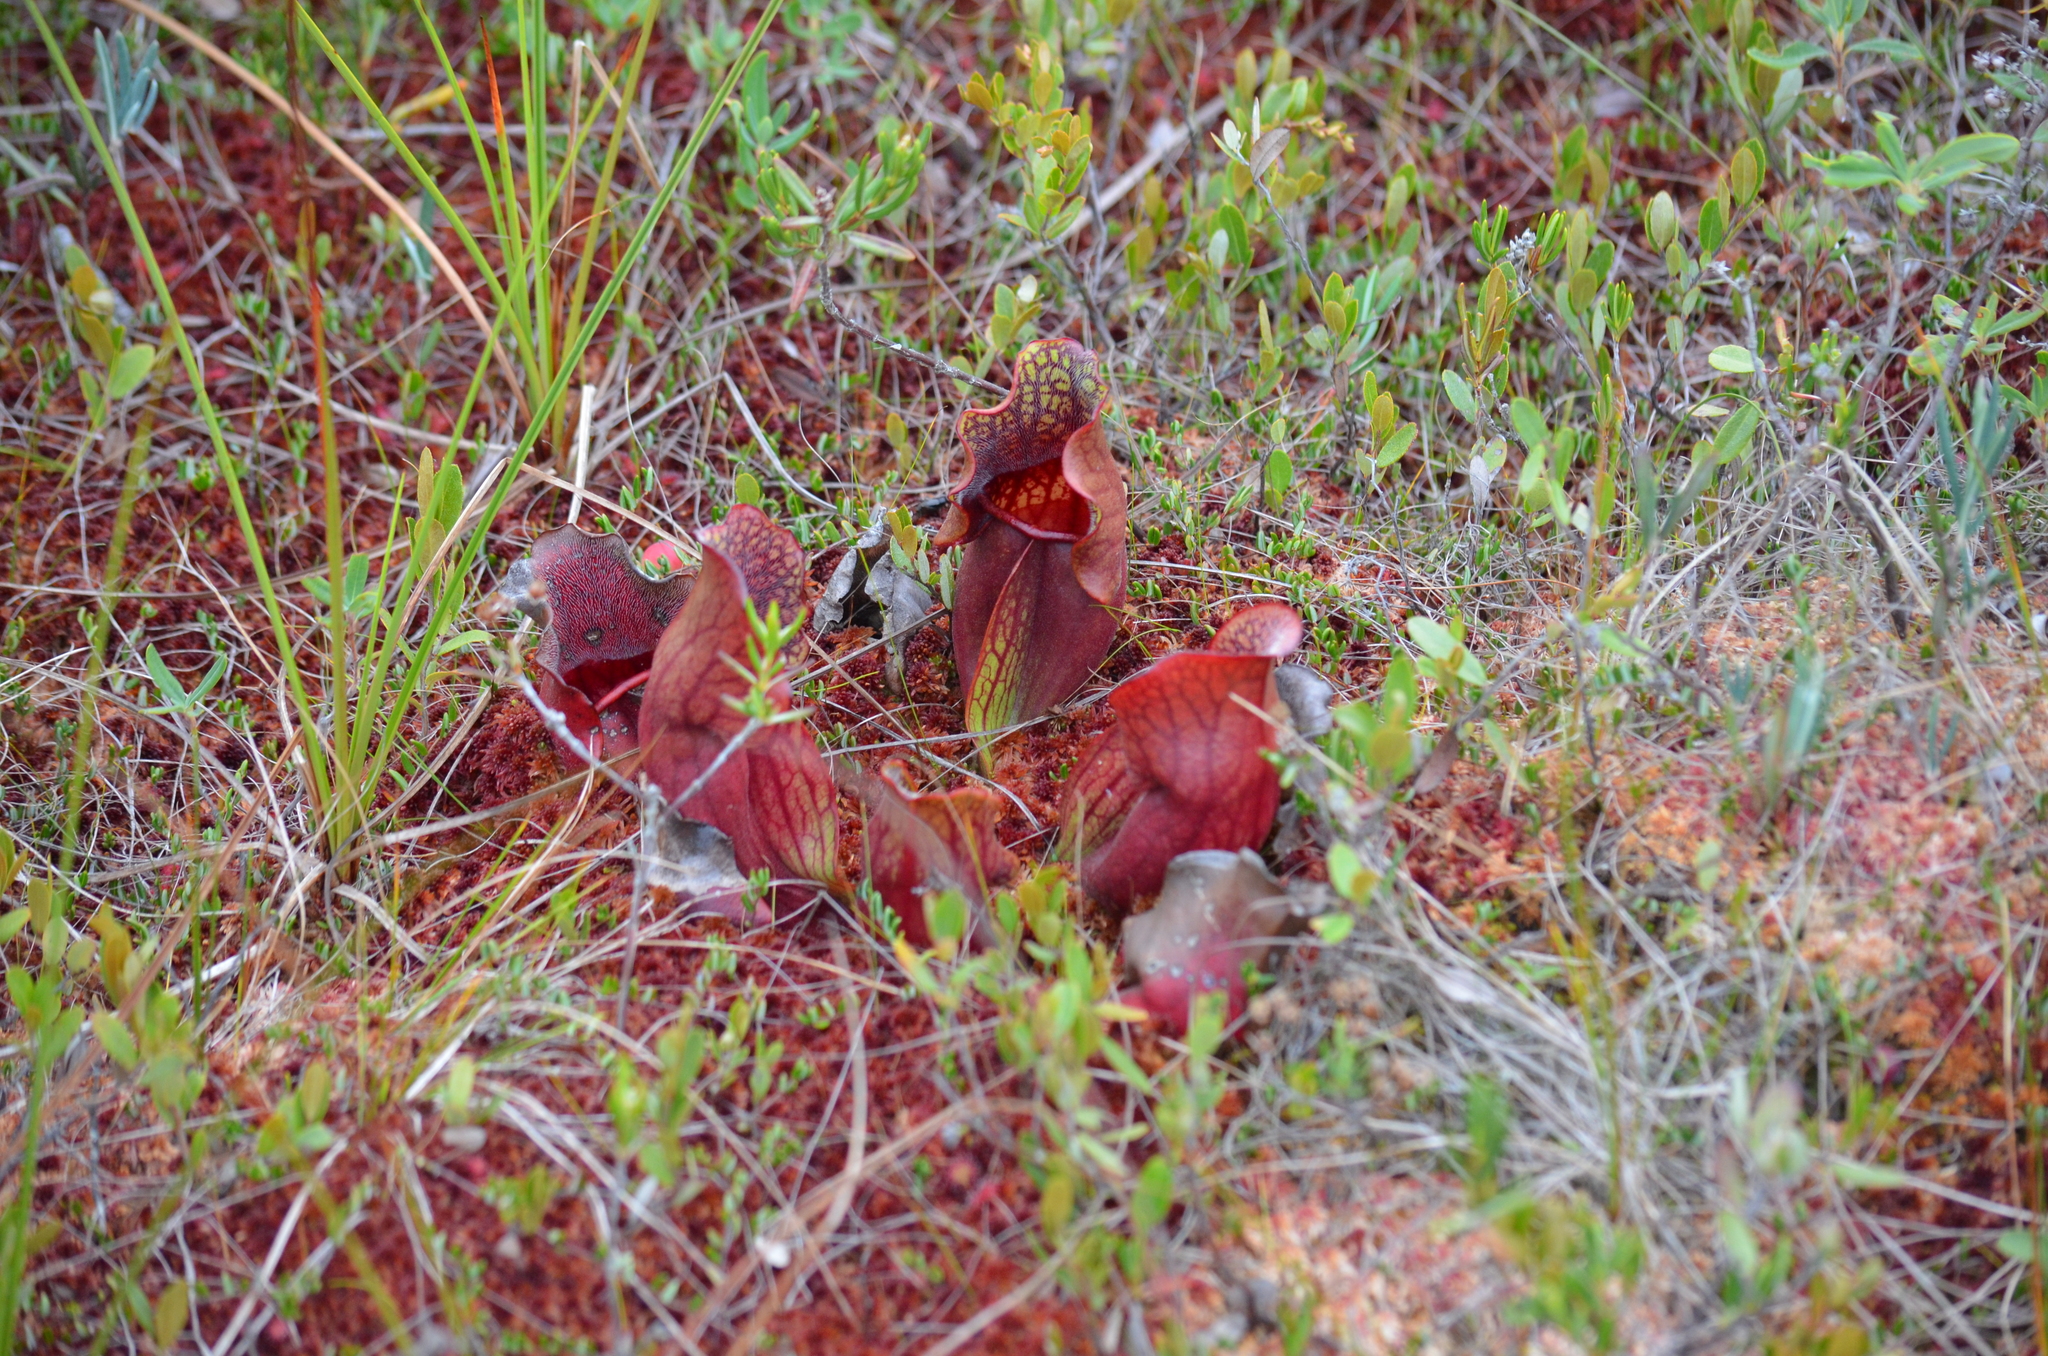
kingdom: Plantae
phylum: Tracheophyta
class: Magnoliopsida
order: Ericales
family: Sarraceniaceae
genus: Sarracenia
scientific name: Sarracenia purpurea
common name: Pitcherplant
